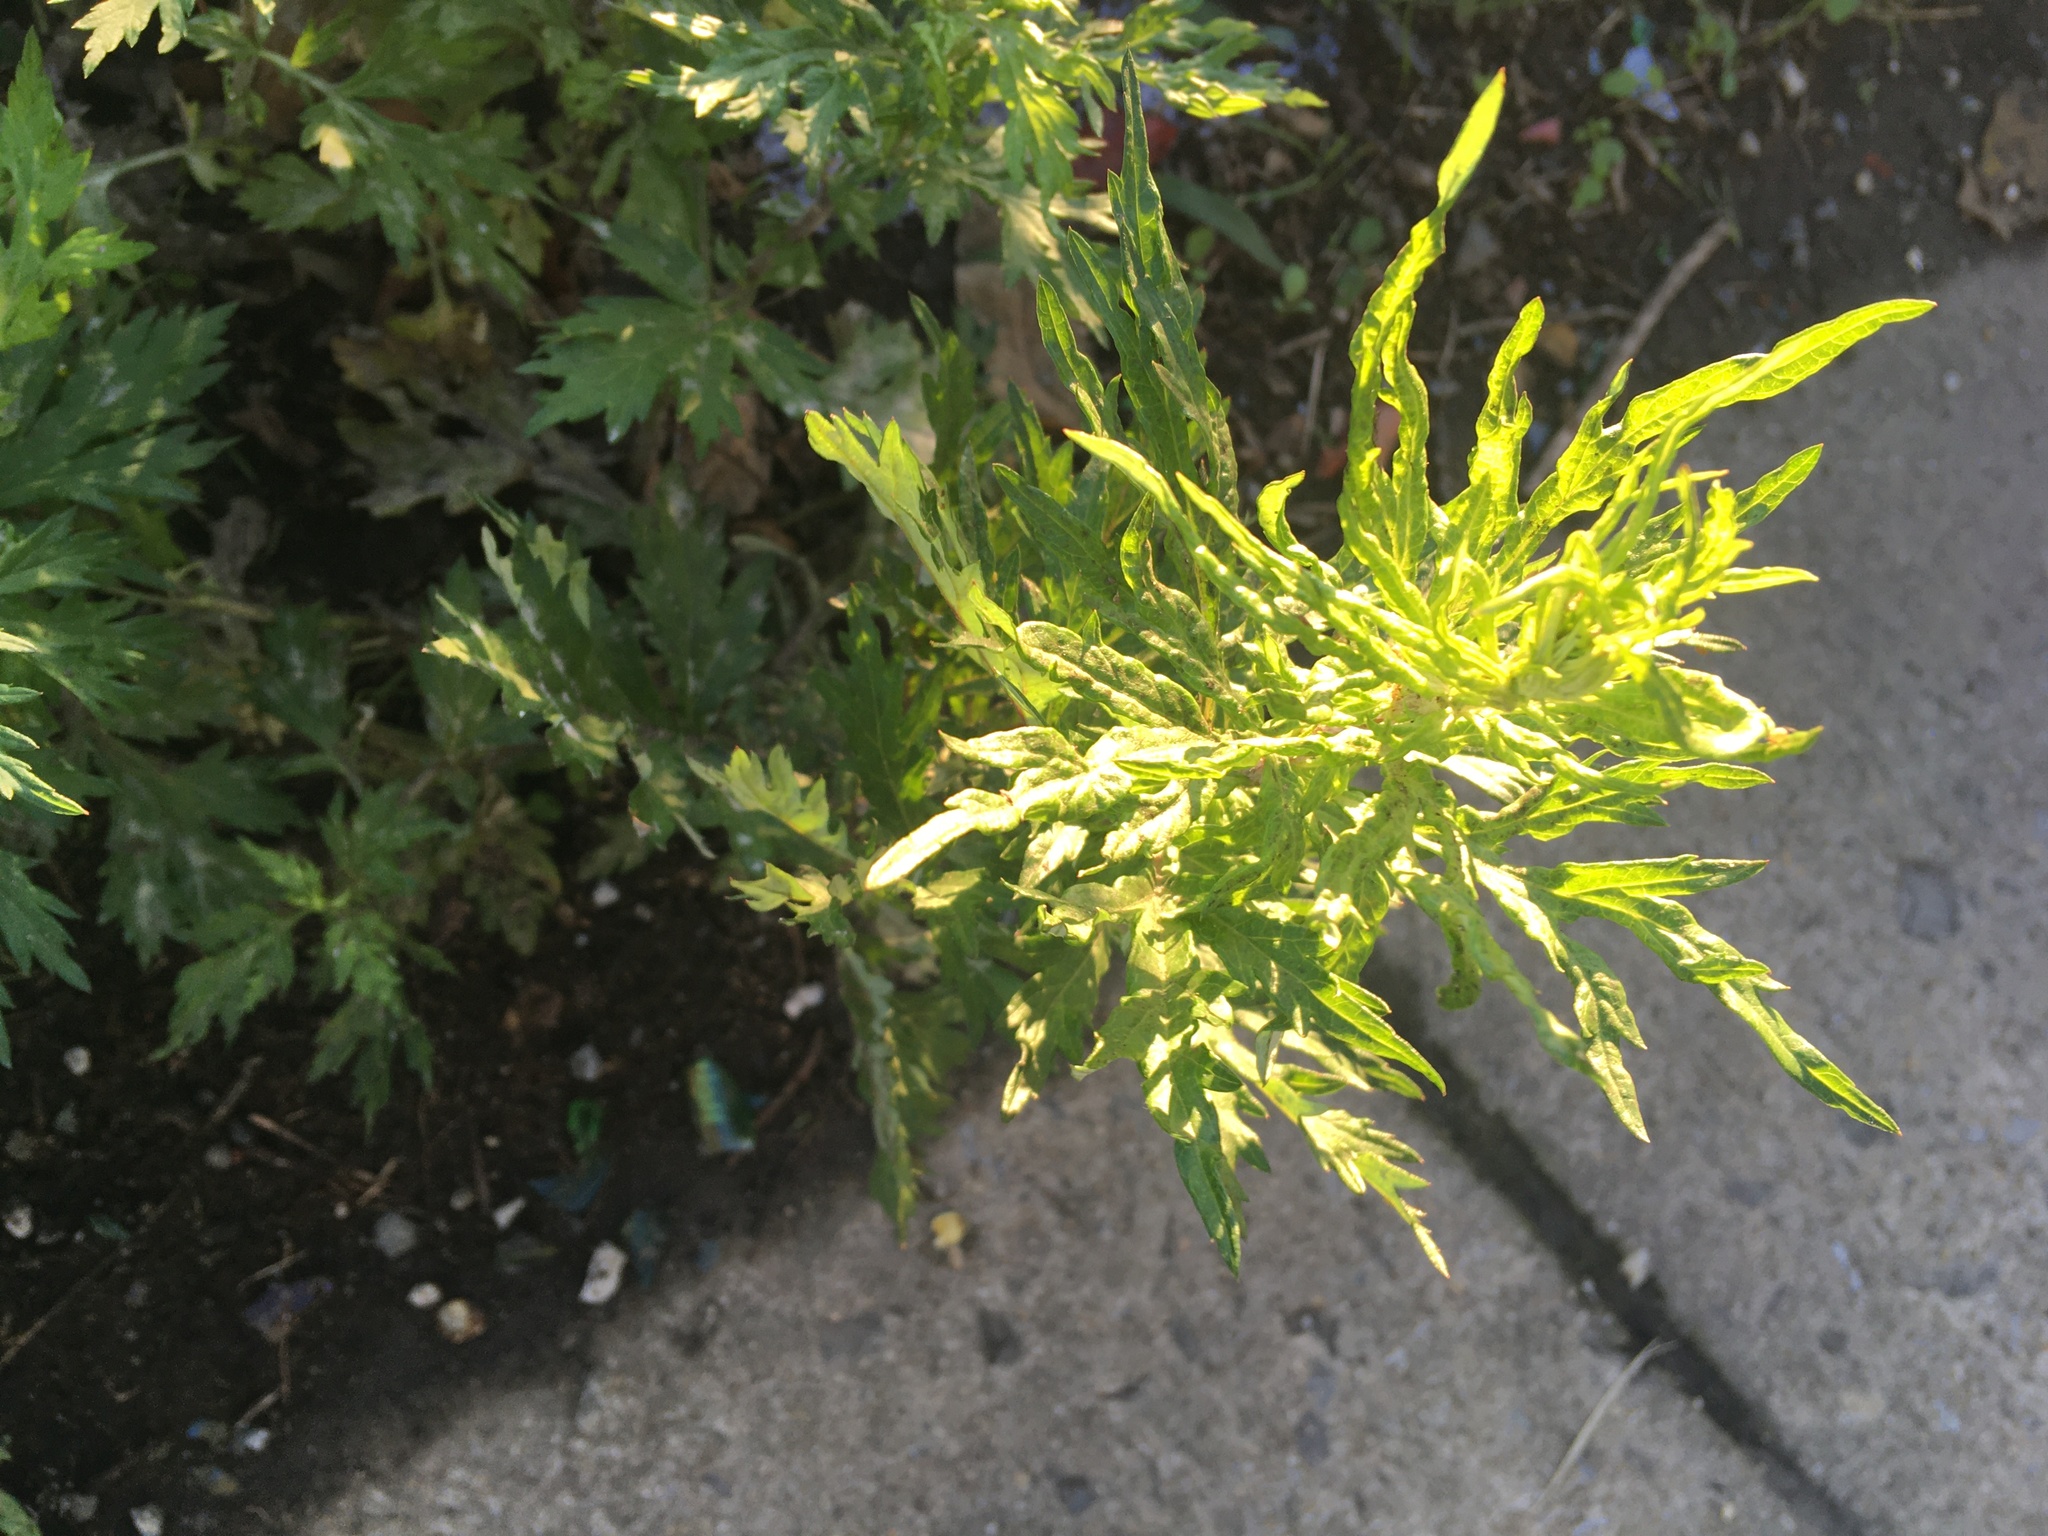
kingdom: Plantae
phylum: Tracheophyta
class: Magnoliopsida
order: Asterales
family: Asteraceae
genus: Artemisia
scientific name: Artemisia vulgaris
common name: Mugwort
